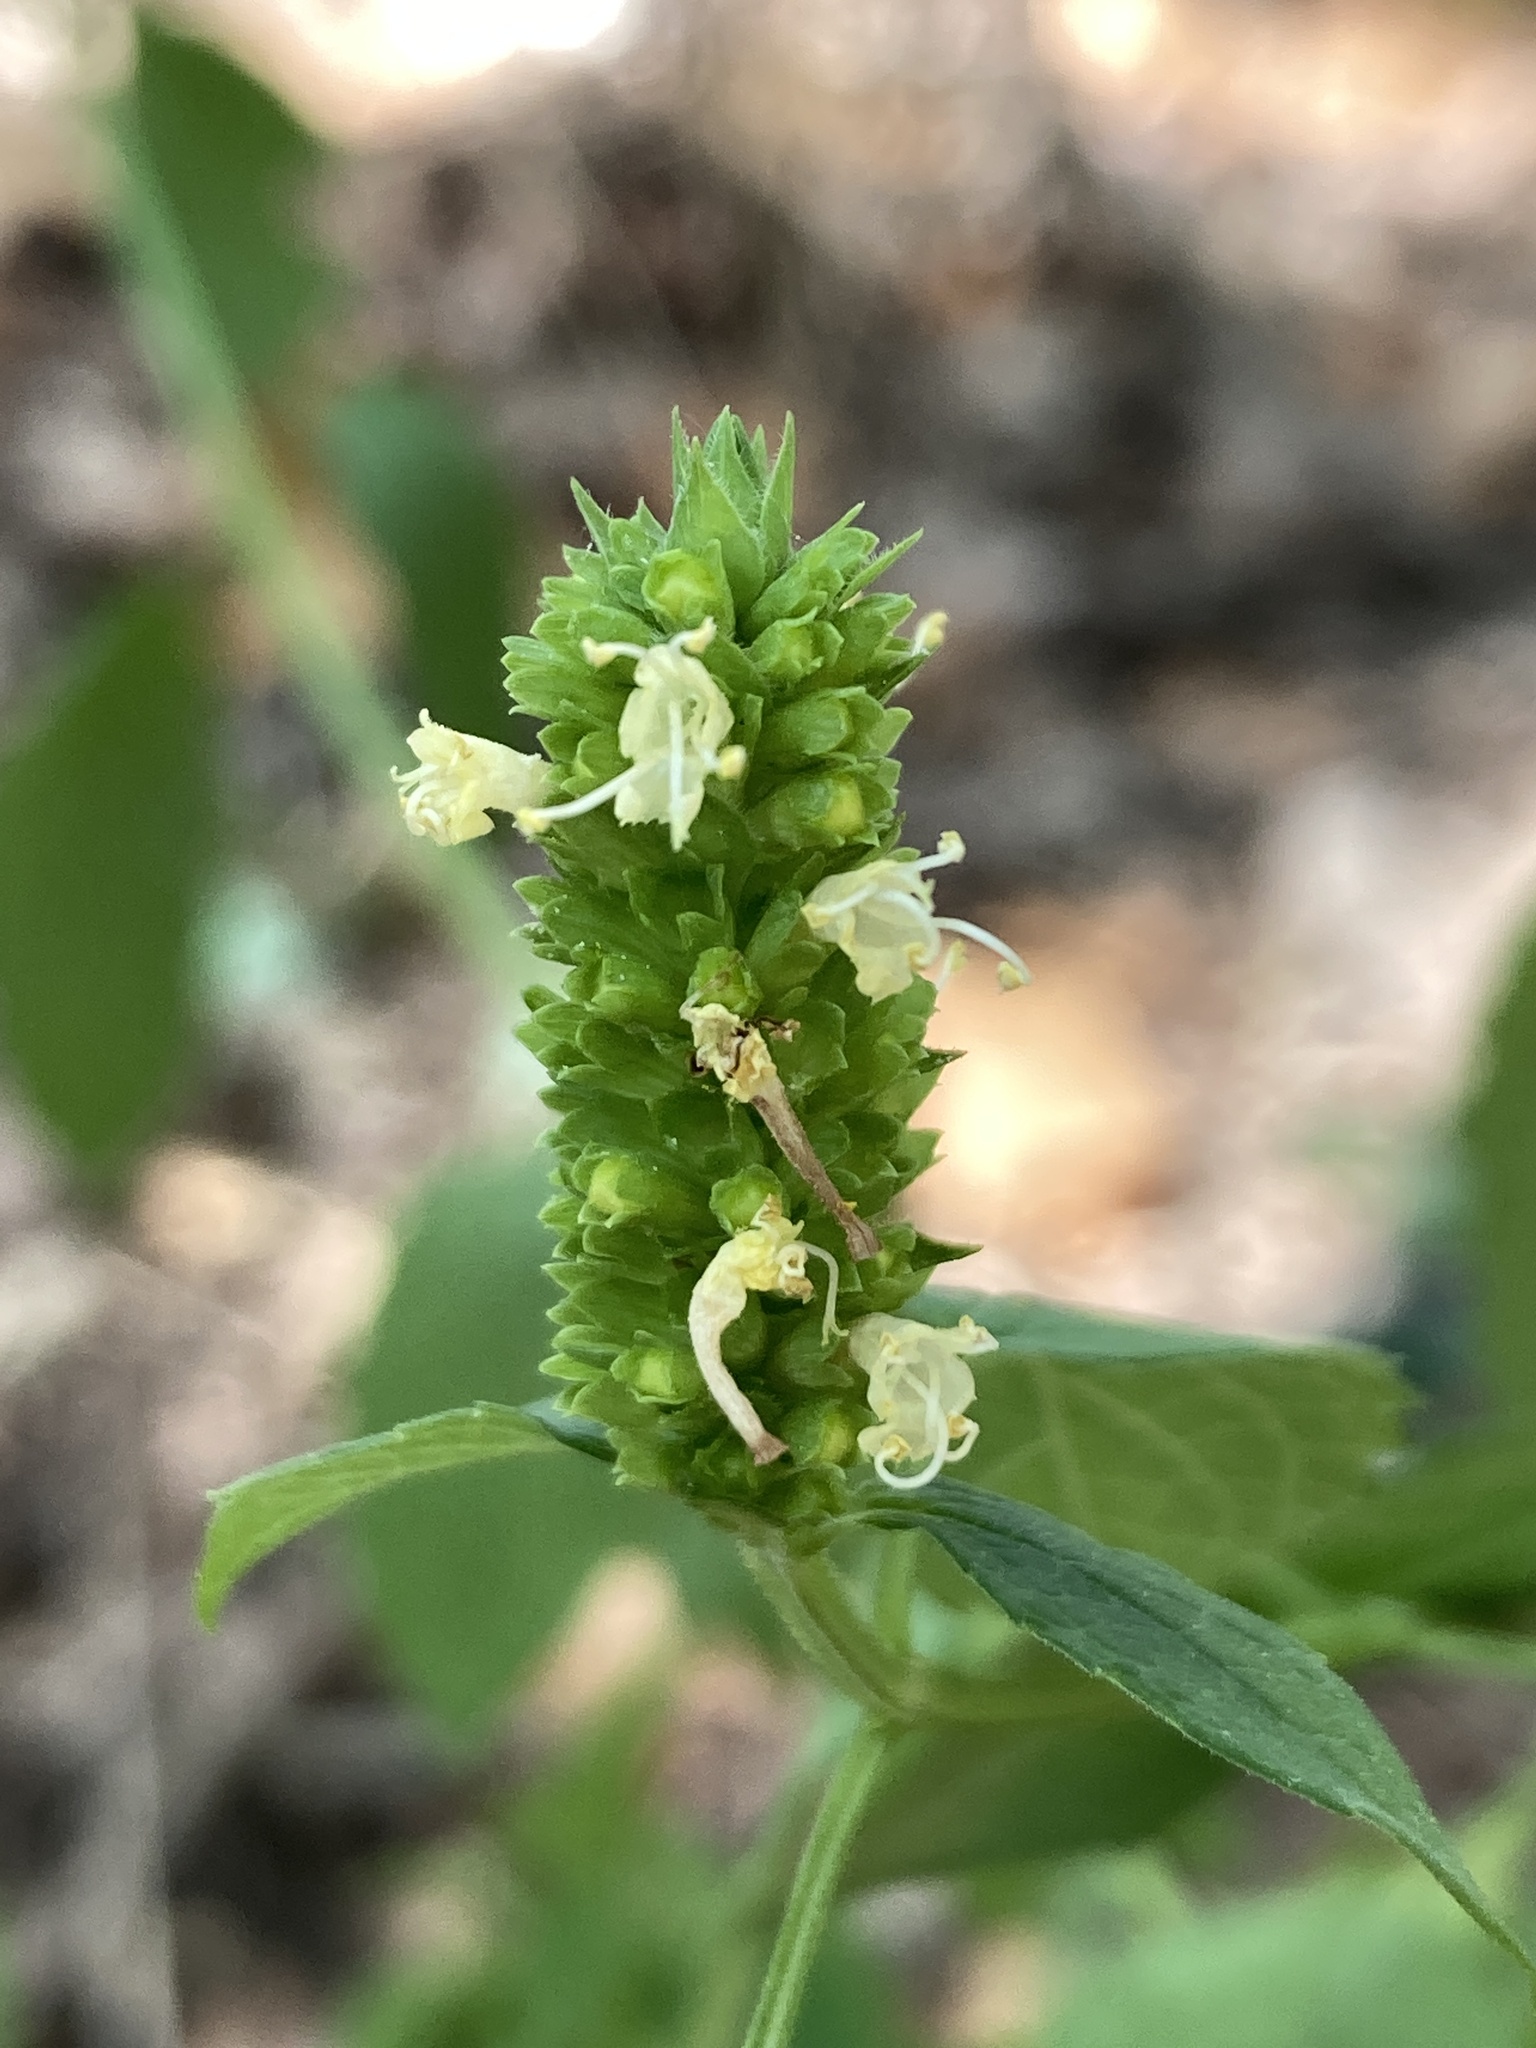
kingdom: Plantae
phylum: Tracheophyta
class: Magnoliopsida
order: Lamiales
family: Lamiaceae
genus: Agastache
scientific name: Agastache nepetoides
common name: Catnip giant hyssop
